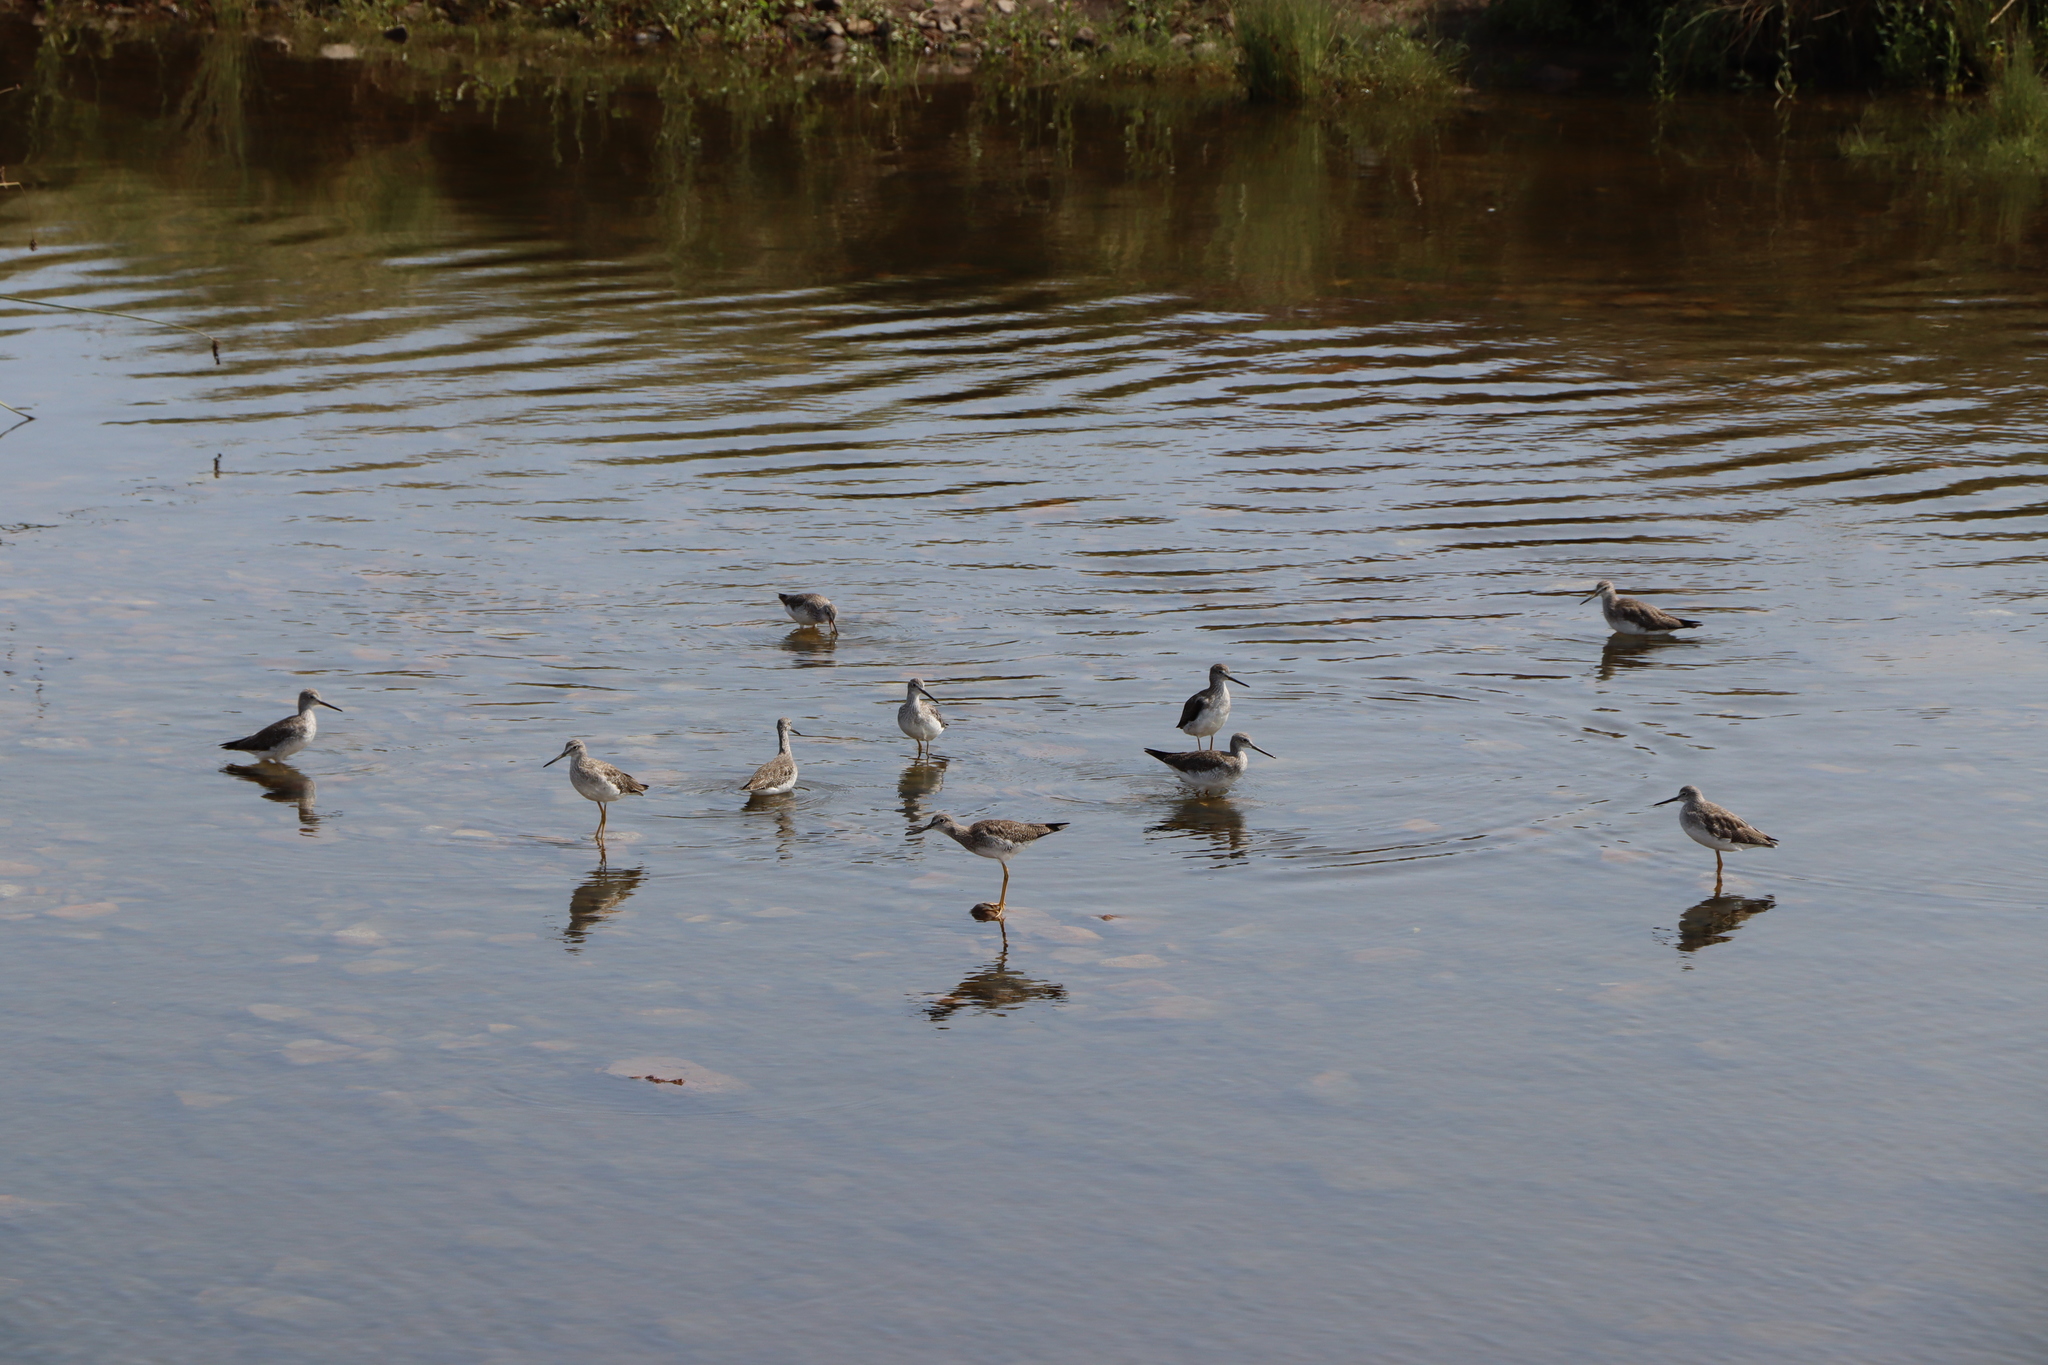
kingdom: Animalia
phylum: Chordata
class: Aves
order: Charadriiformes
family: Scolopacidae
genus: Tringa
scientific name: Tringa melanoleuca
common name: Greater yellowlegs
